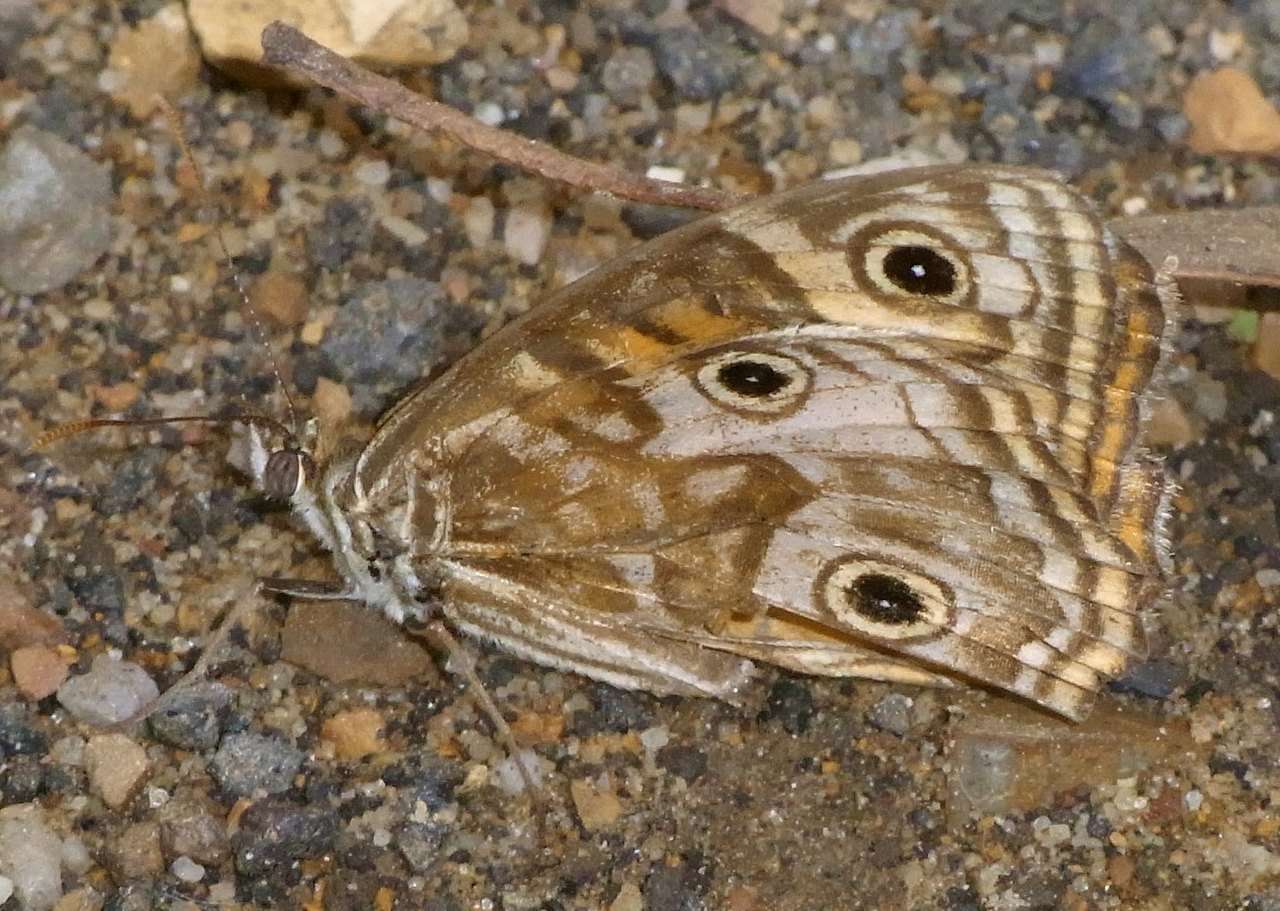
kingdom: Animalia
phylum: Arthropoda
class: Insecta
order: Lepidoptera
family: Nymphalidae
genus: Geitoneura
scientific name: Geitoneura acantha
